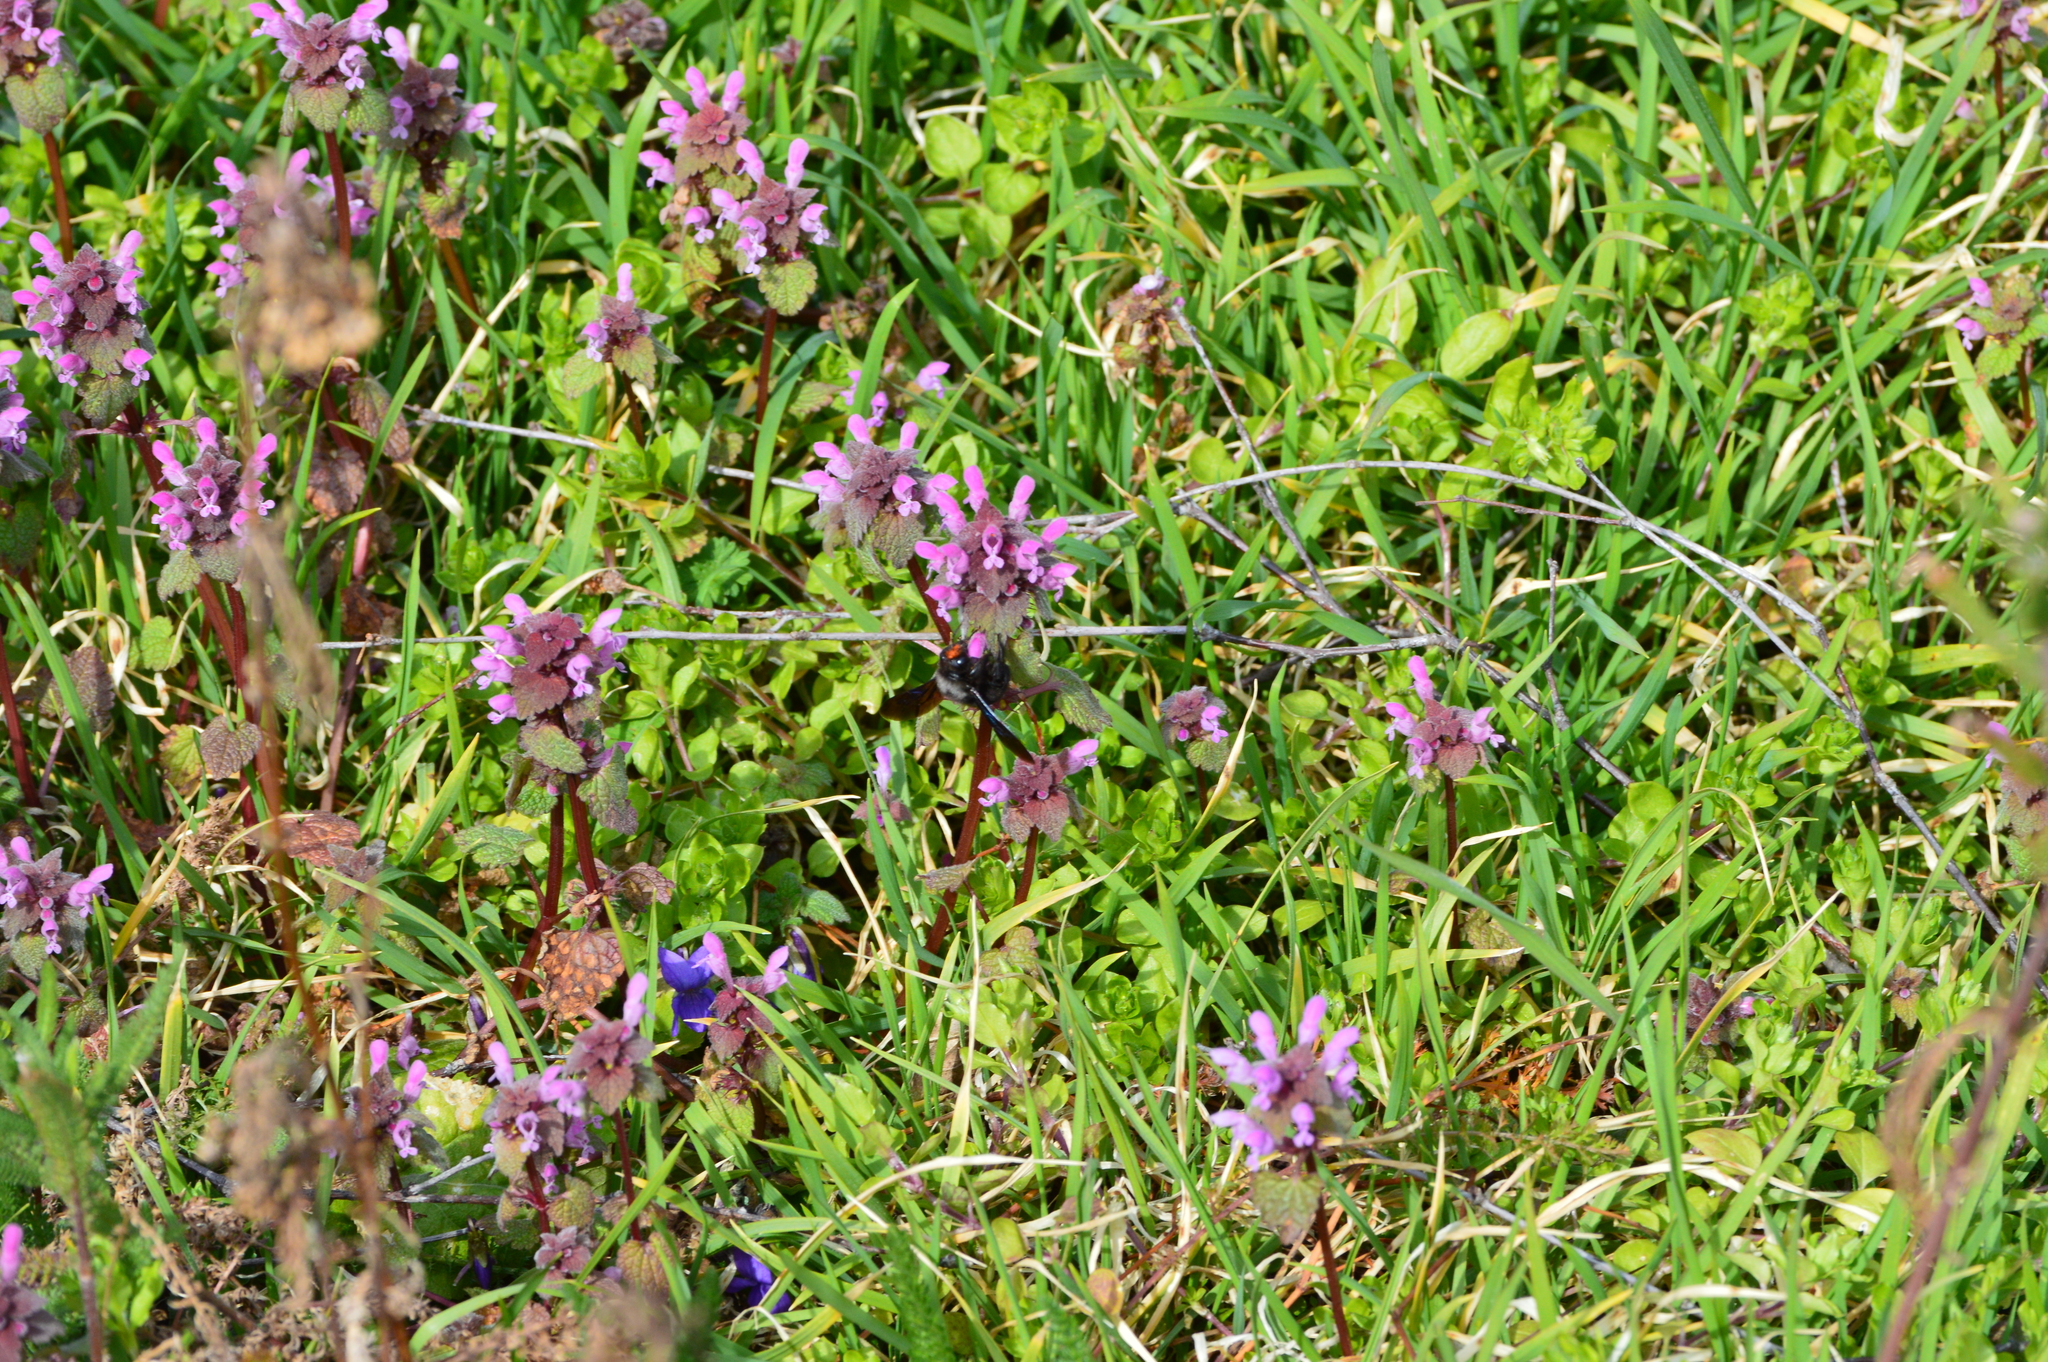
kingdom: Plantae
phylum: Tracheophyta
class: Magnoliopsida
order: Lamiales
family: Lamiaceae
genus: Lamium
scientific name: Lamium purpureum
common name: Red dead-nettle
